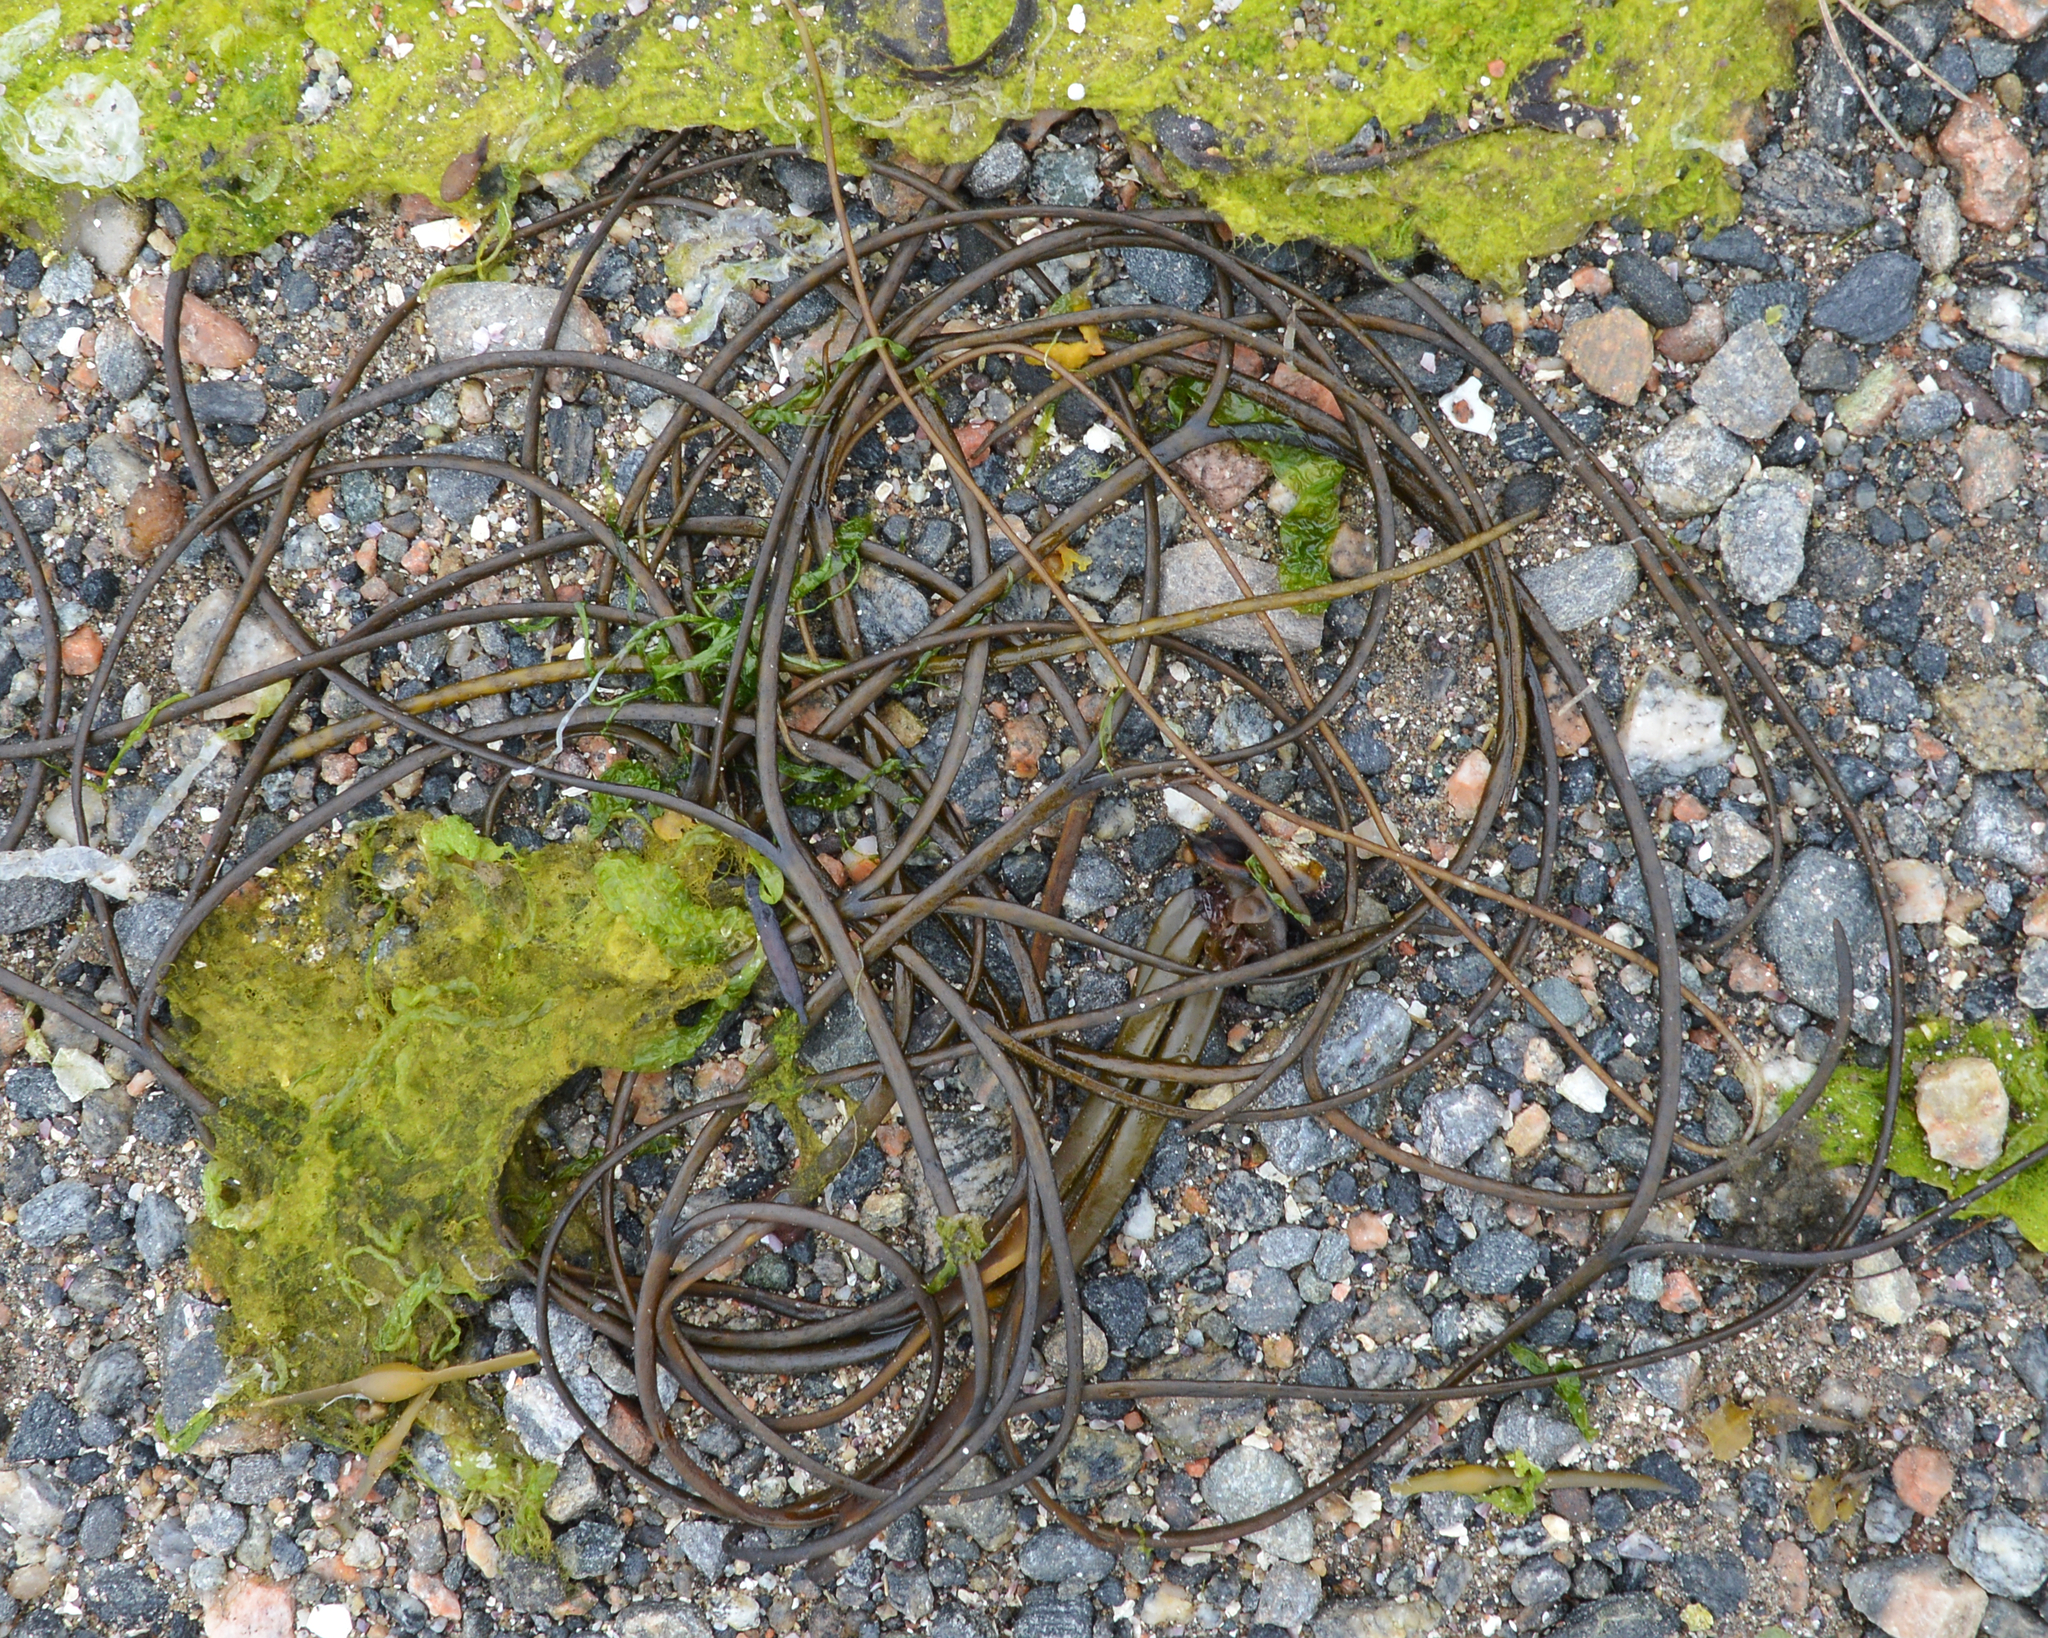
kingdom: Chromista
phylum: Ochrophyta
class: Phaeophyceae
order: Fucales
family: Himanthaliaceae
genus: Himanthalia
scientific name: Himanthalia elongata
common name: Sea-thong
